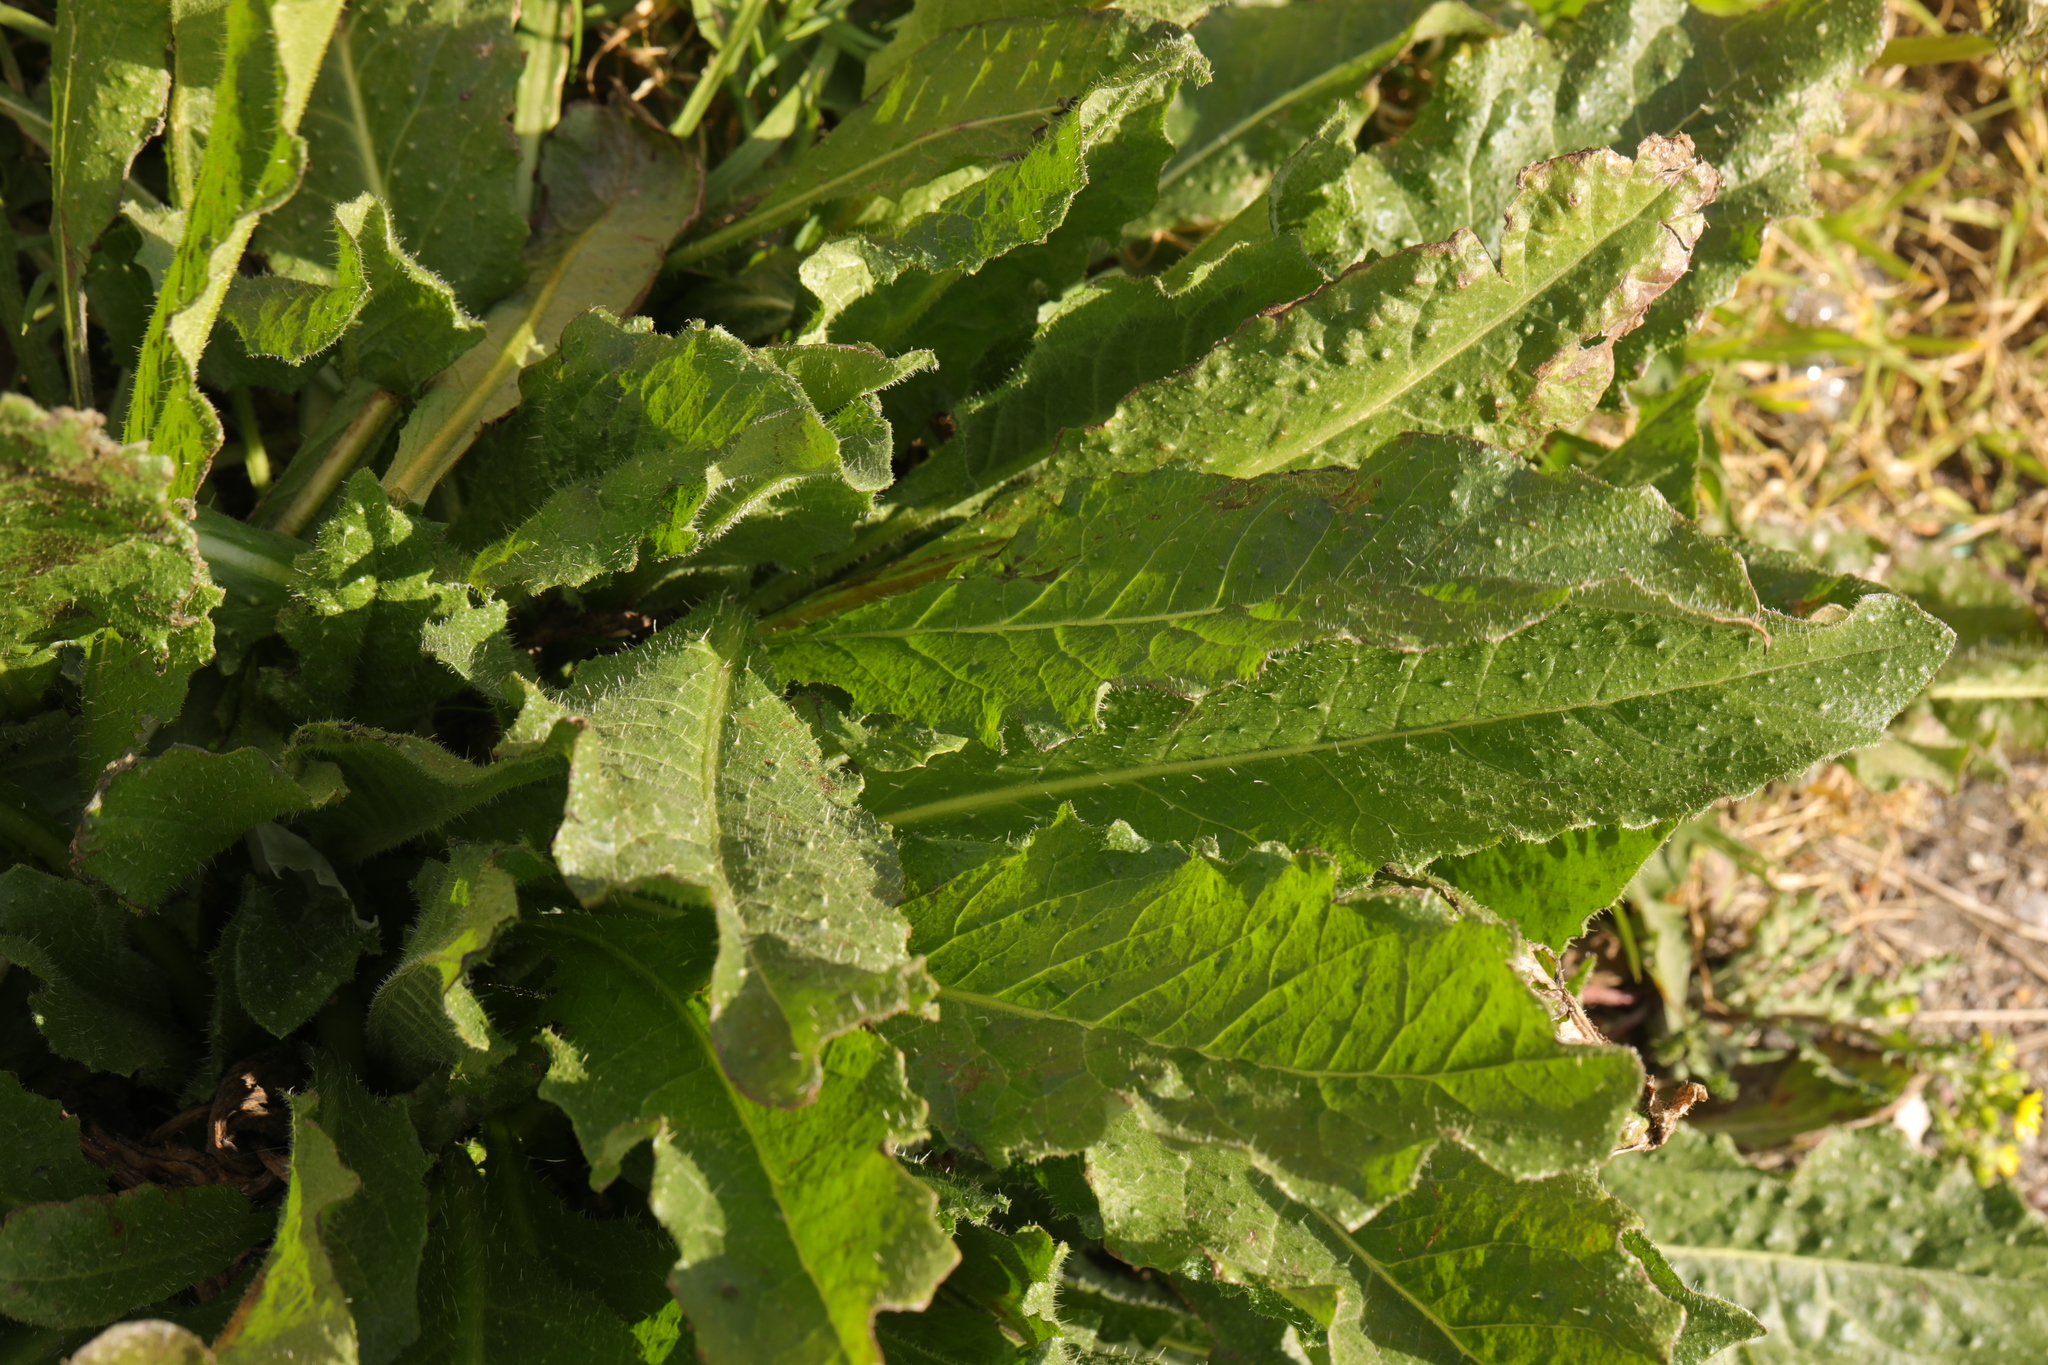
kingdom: Plantae
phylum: Tracheophyta
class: Magnoliopsida
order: Asterales
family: Asteraceae
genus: Helminthotheca
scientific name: Helminthotheca echioides
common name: Ox-tongue
